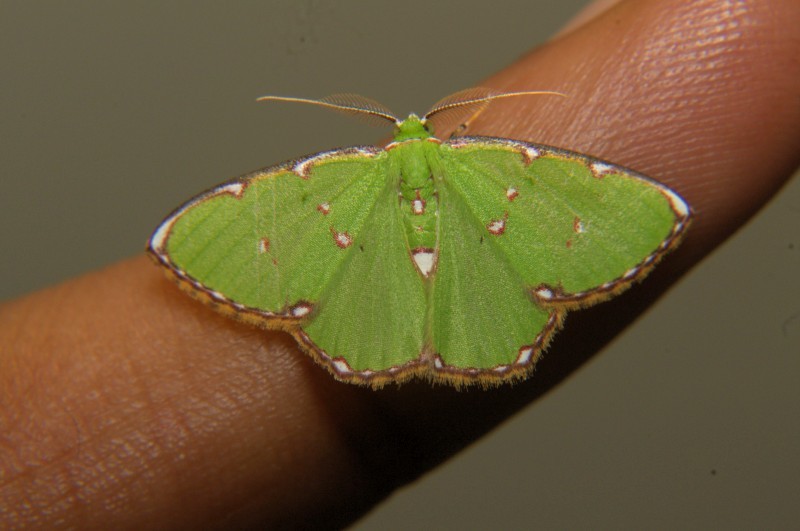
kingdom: Animalia
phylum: Arthropoda
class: Insecta
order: Lepidoptera
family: Geometridae
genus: Comostolodes
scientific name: Comostolodes
